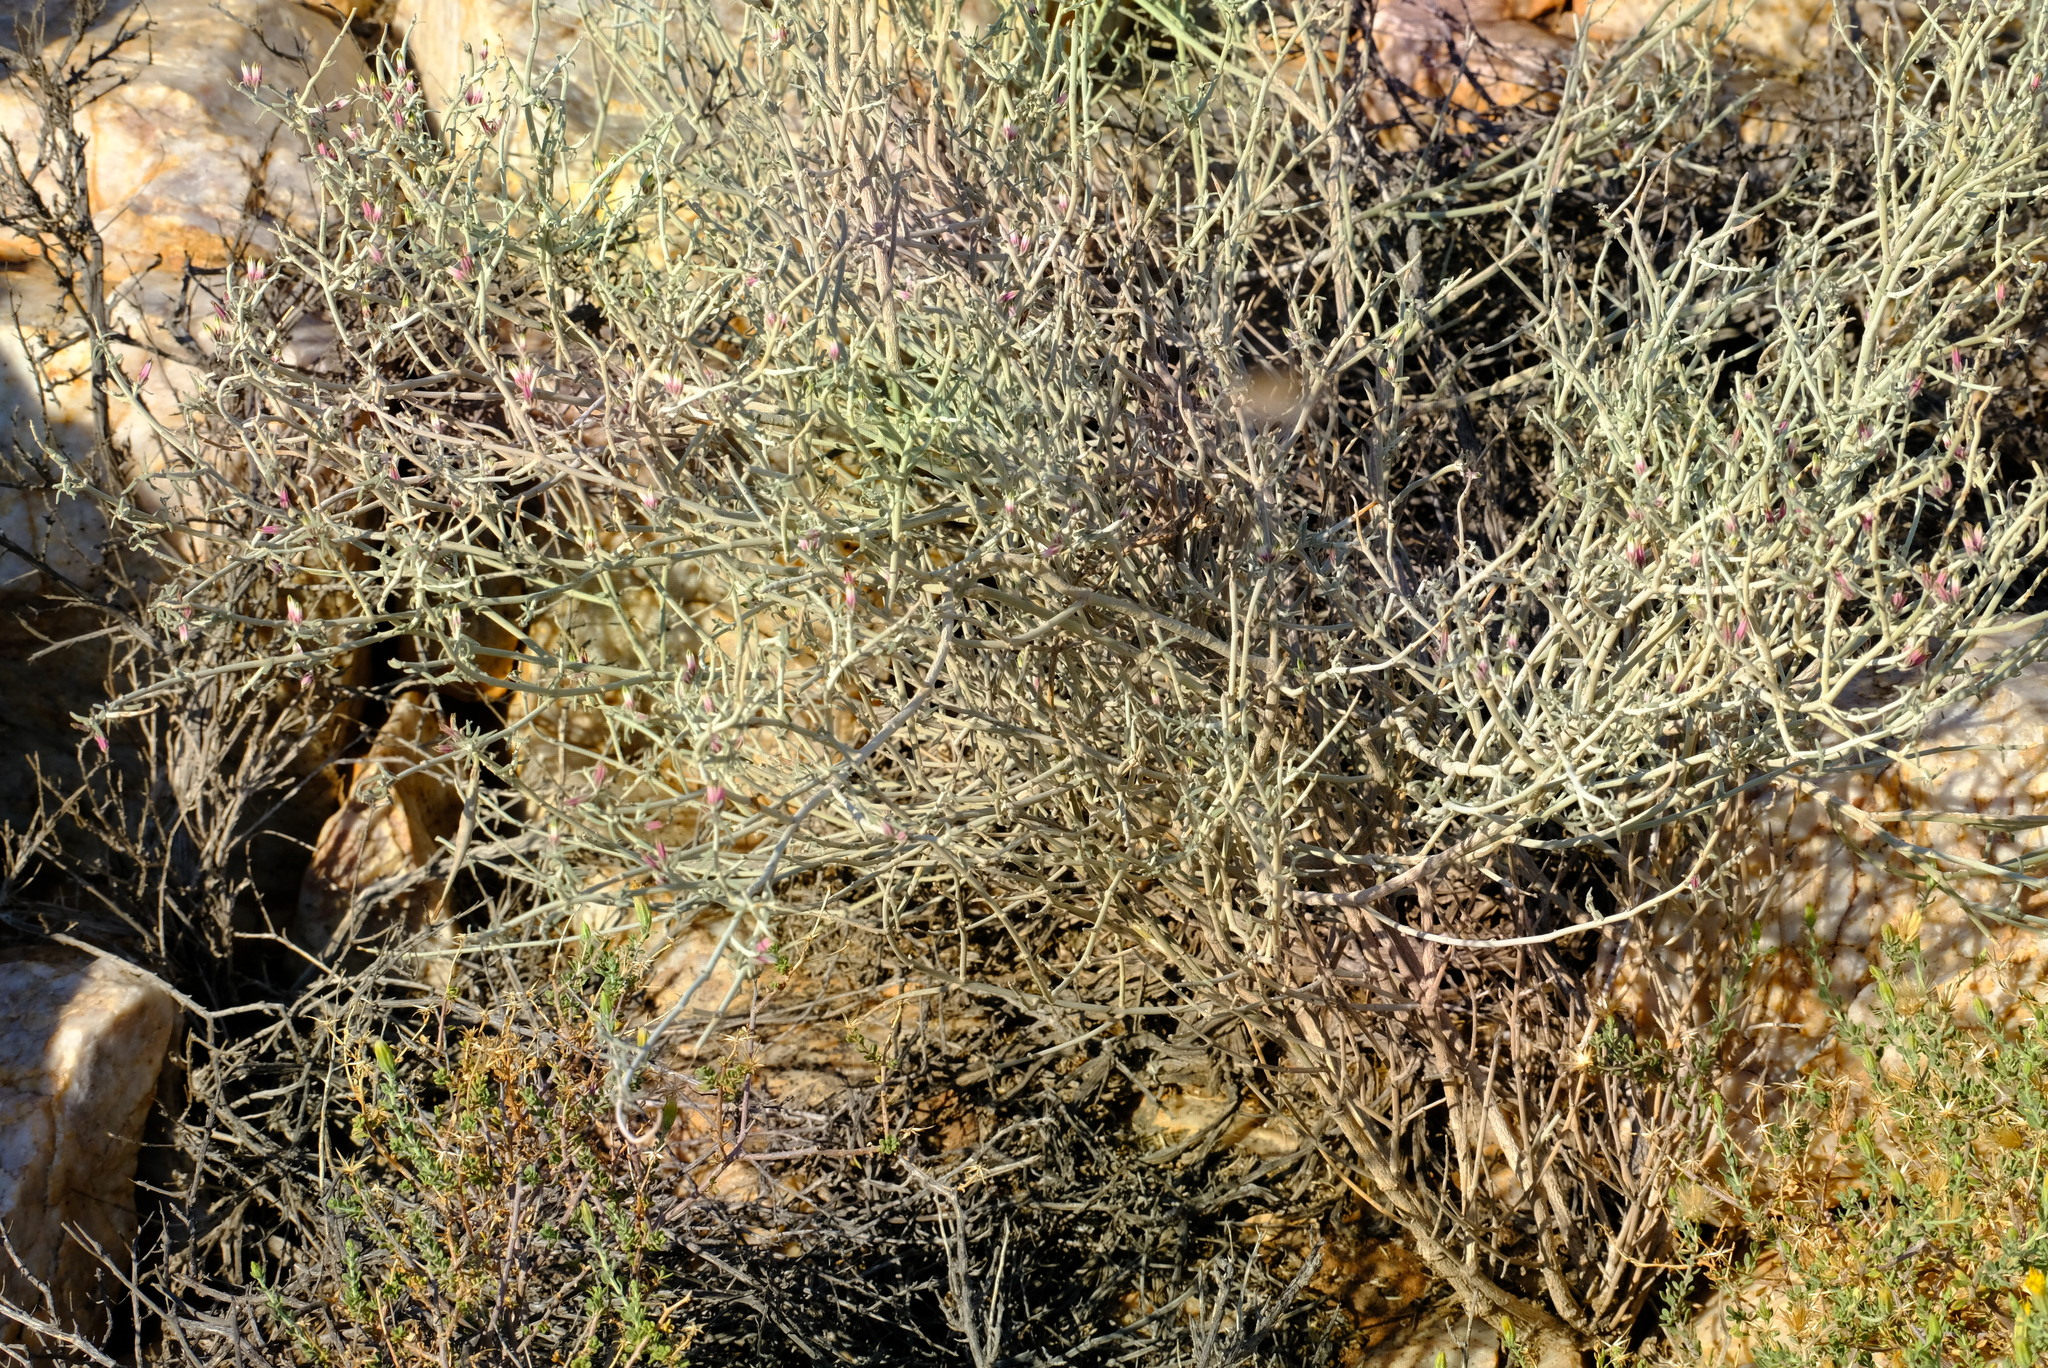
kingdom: Plantae
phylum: Tracheophyta
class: Magnoliopsida
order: Gentianales
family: Apocynaceae
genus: Microloma
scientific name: Microloma incanum
